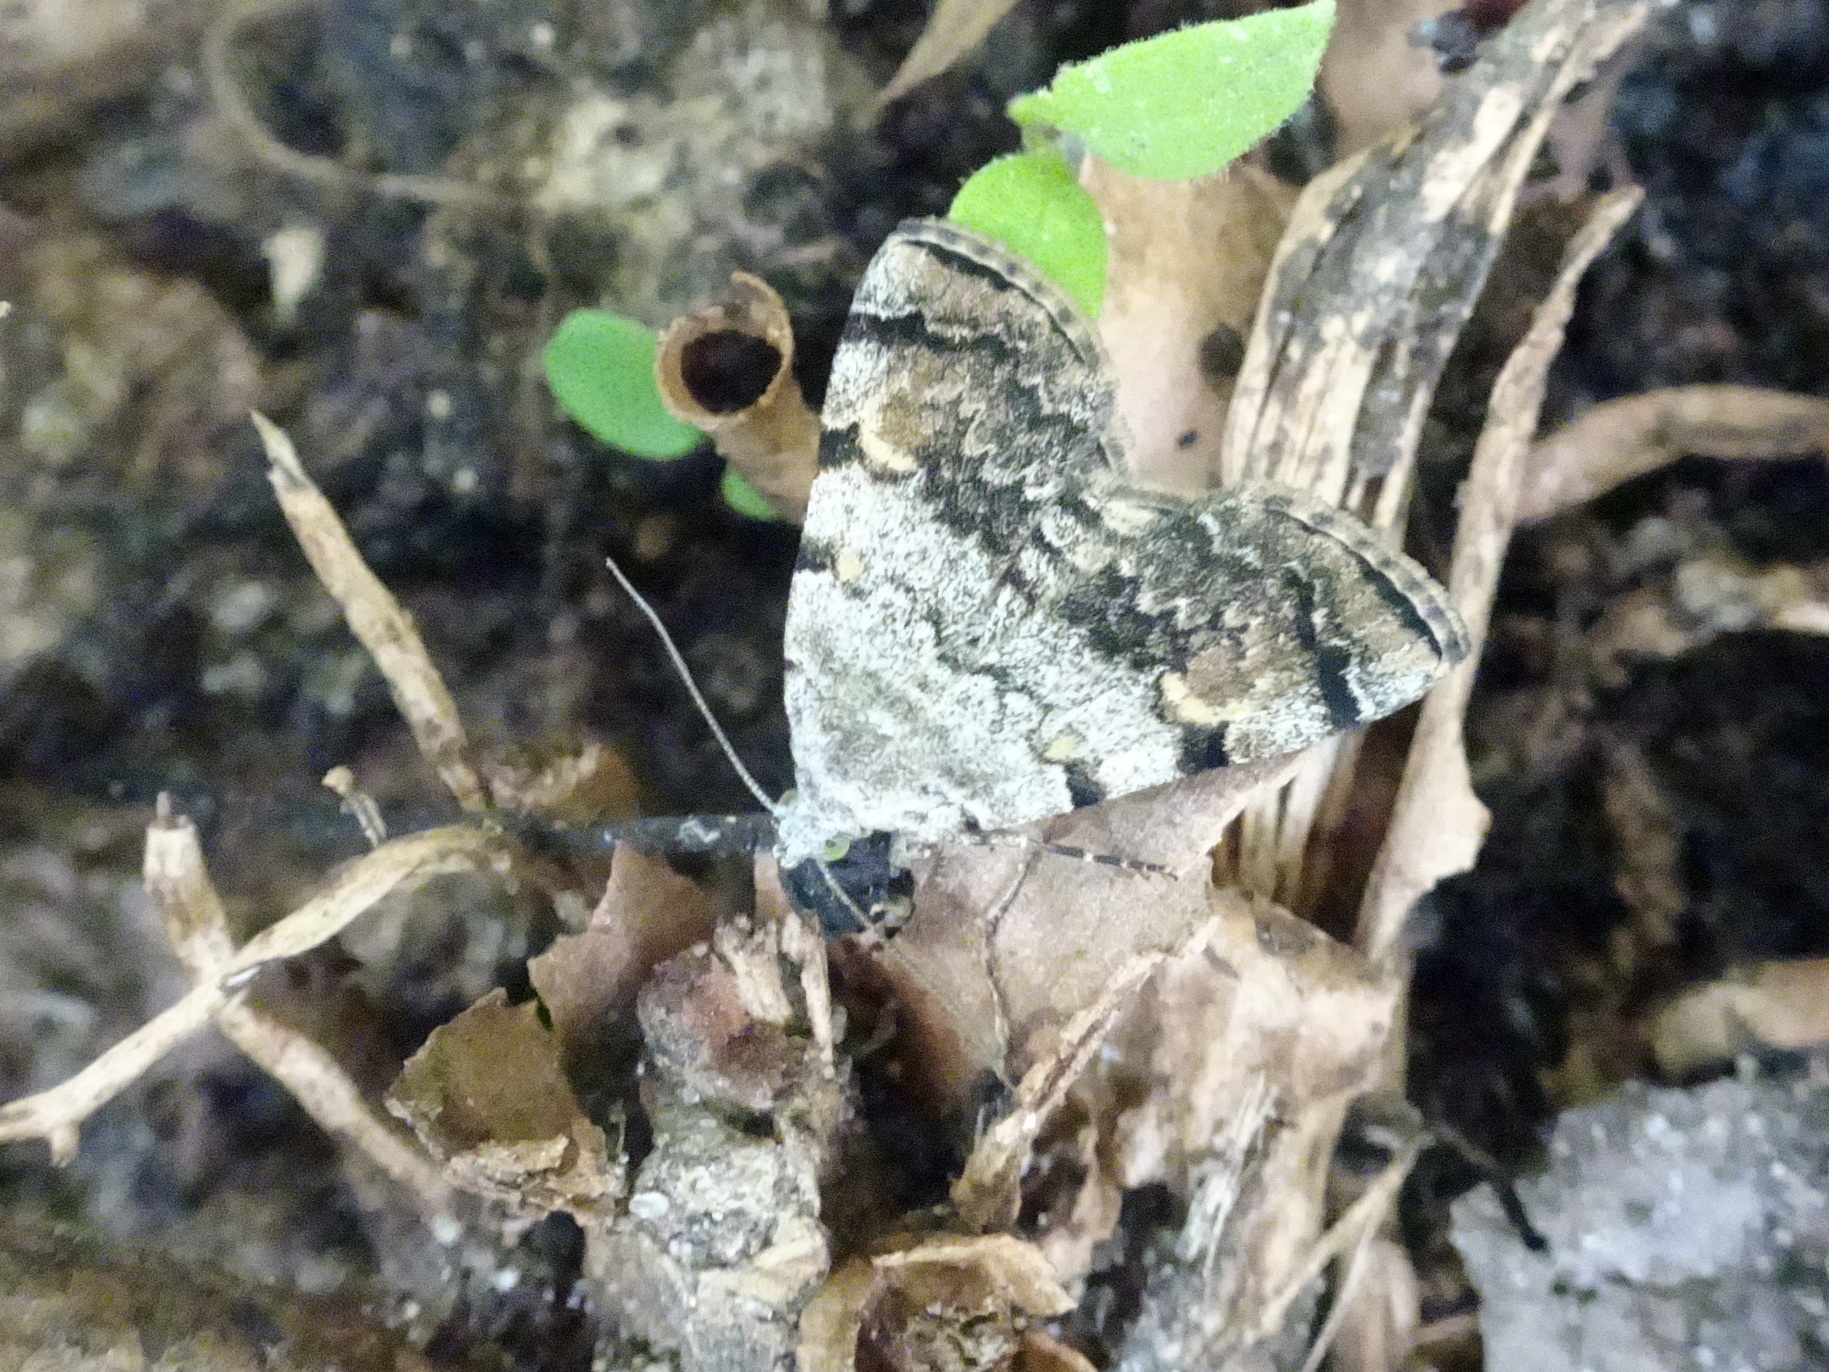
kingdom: Animalia
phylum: Arthropoda
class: Insecta
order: Lepidoptera
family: Erebidae
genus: Idia
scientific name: Idia americalis
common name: American idia moth
